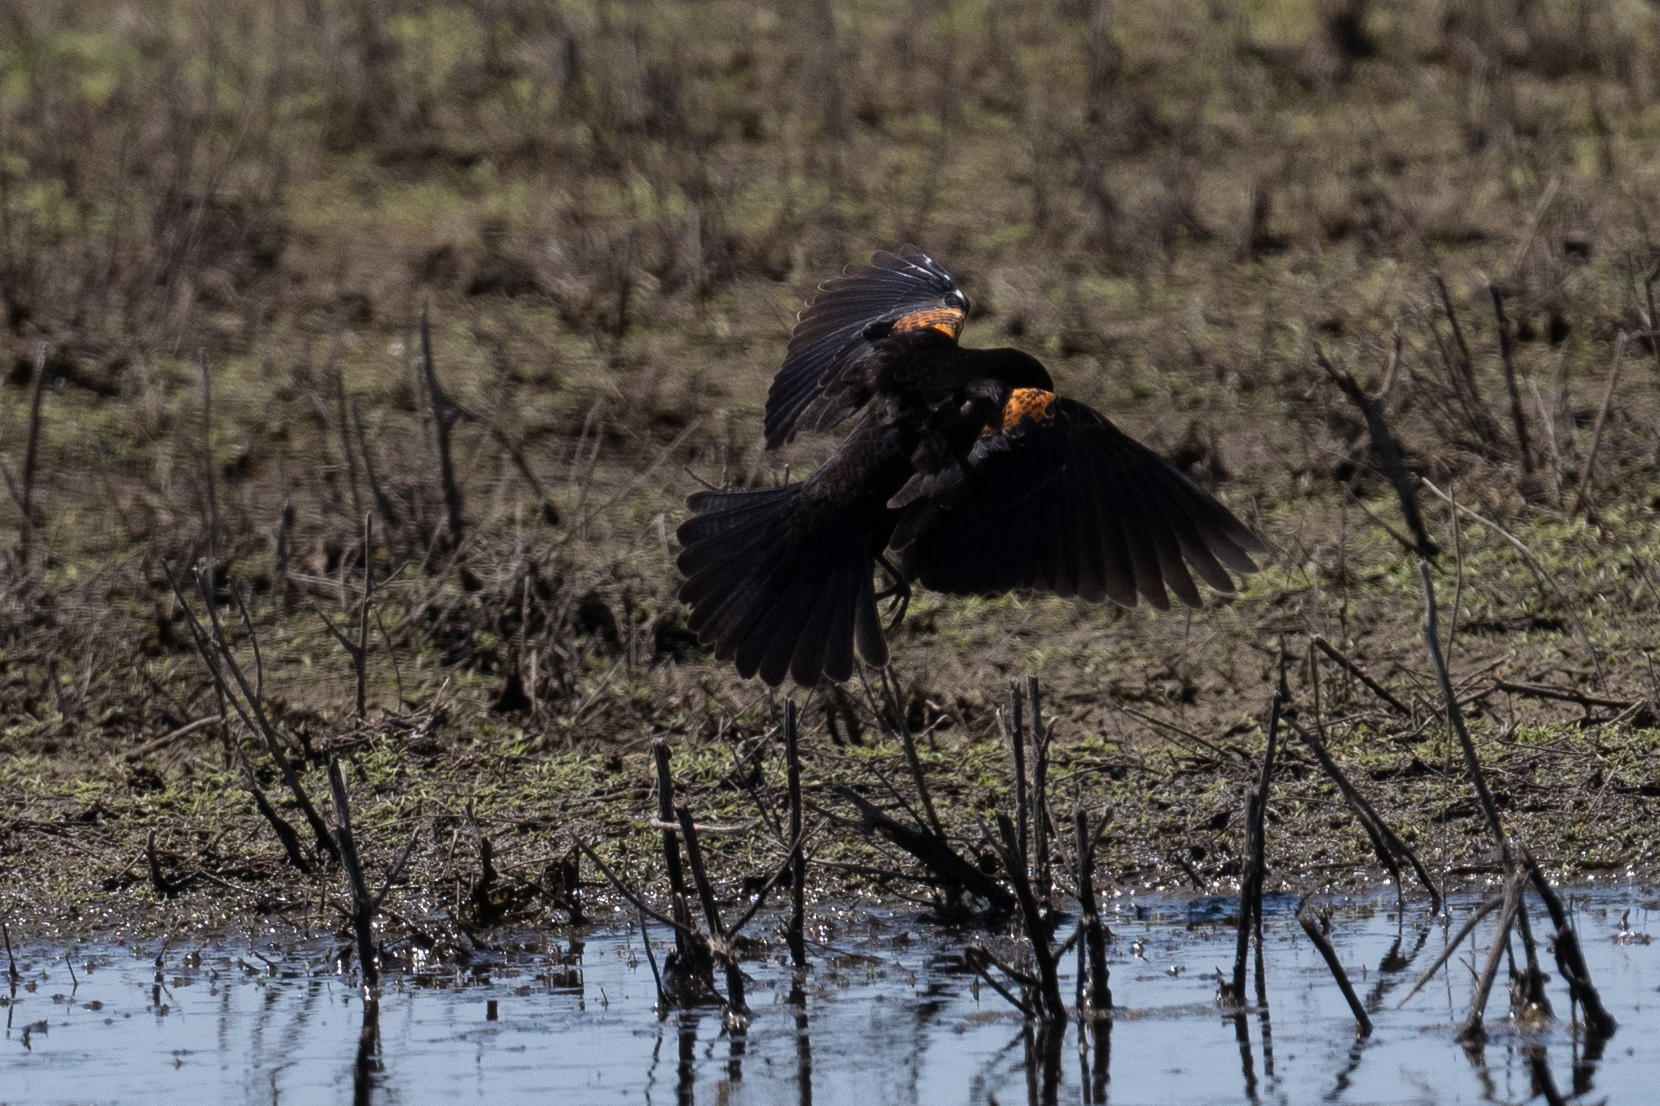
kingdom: Animalia
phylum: Chordata
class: Aves
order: Passeriformes
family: Icteridae
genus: Agelaius
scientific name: Agelaius phoeniceus
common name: Red-winged blackbird
